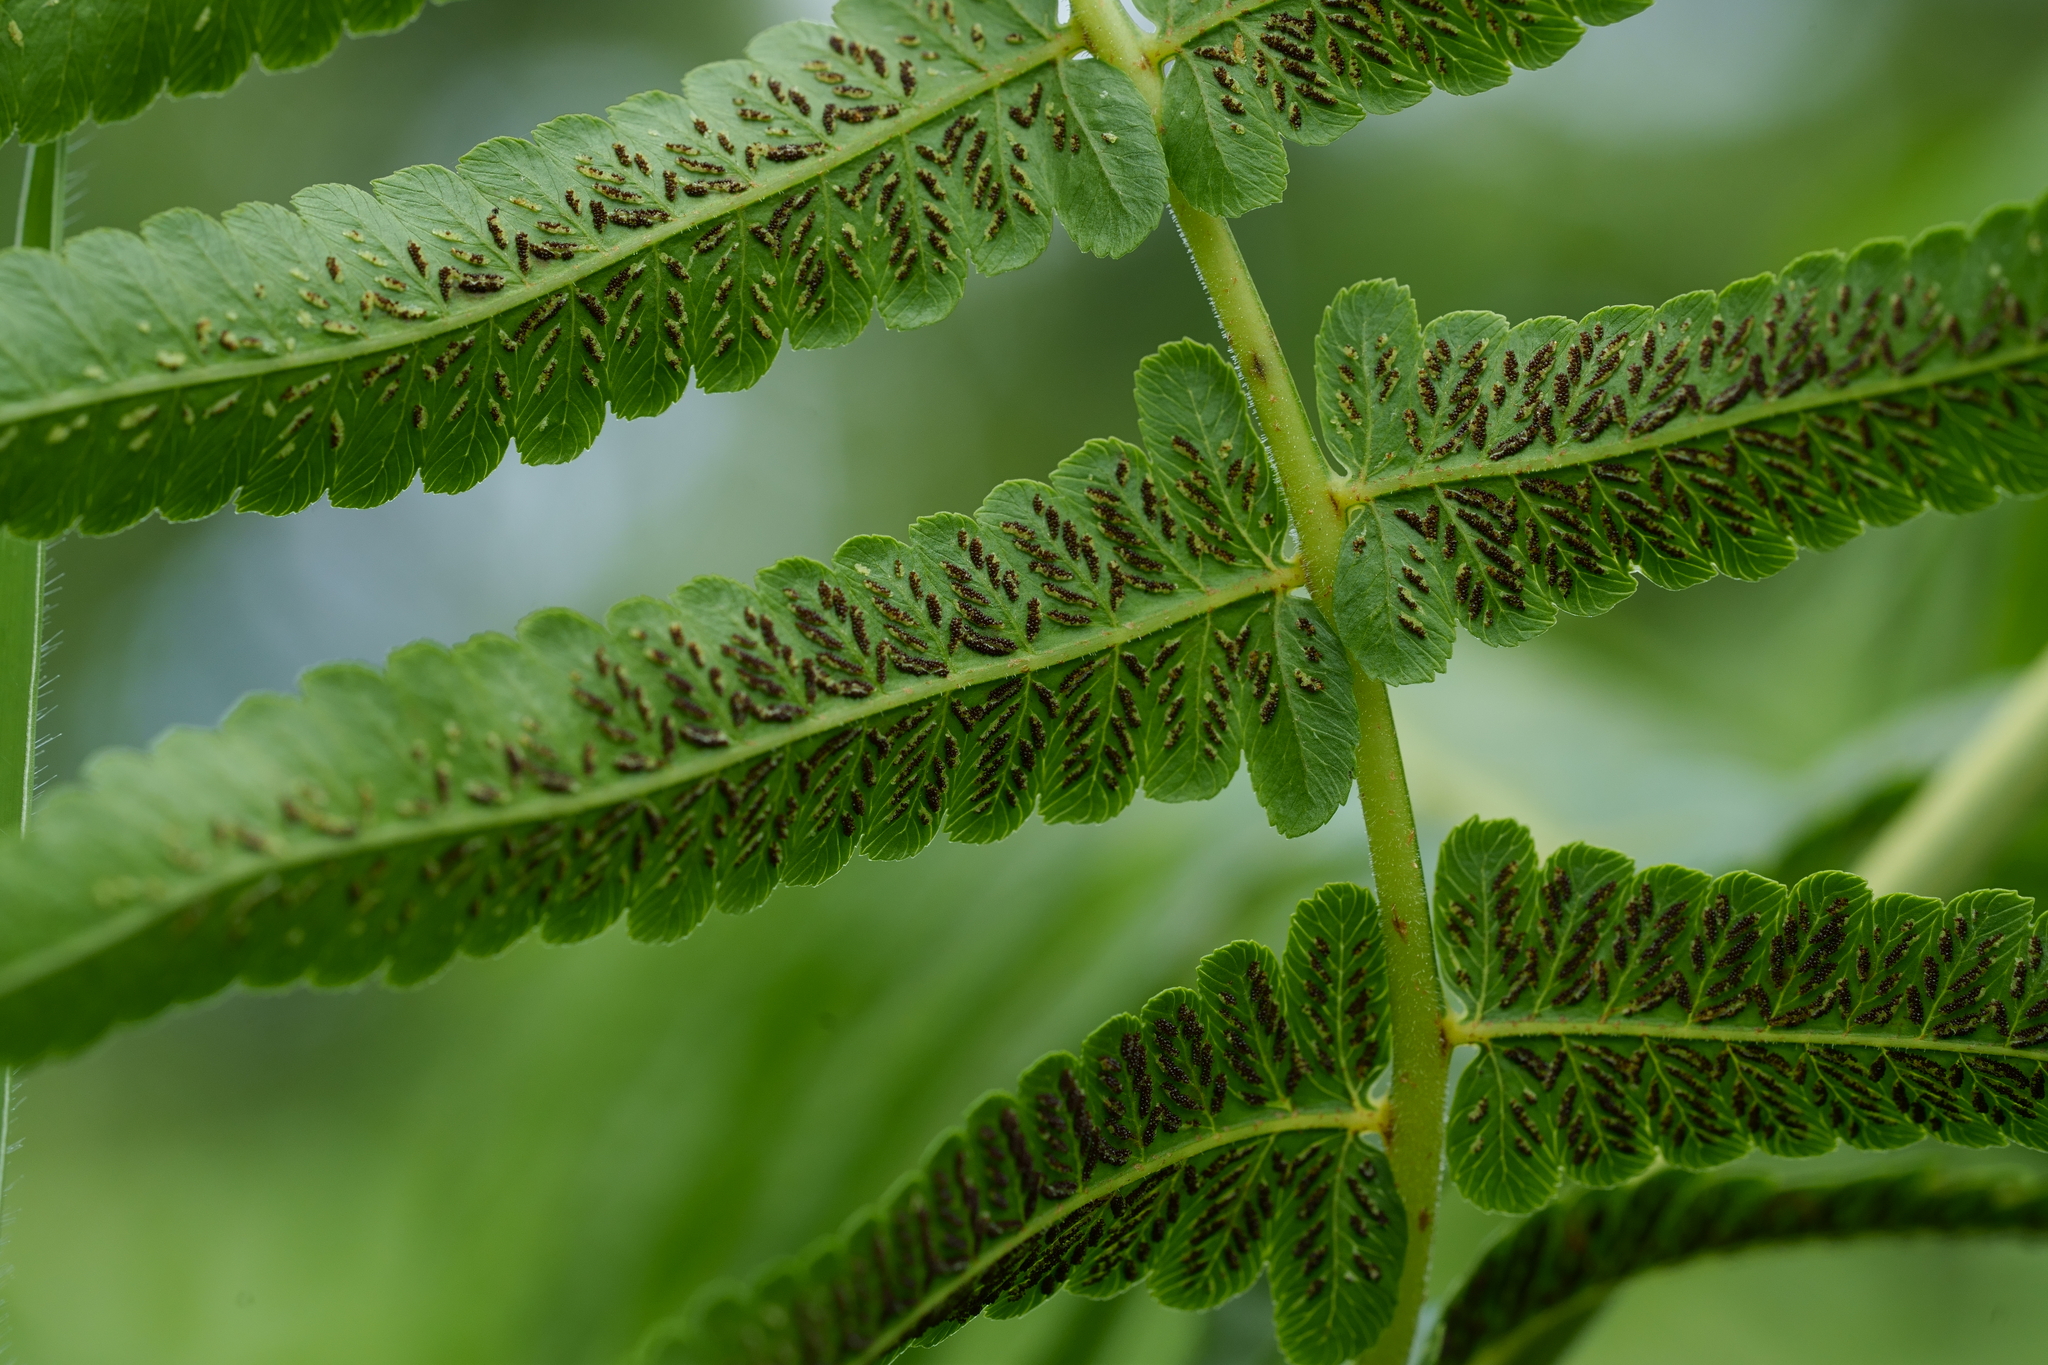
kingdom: Plantae
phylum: Tracheophyta
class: Polypodiopsida
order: Polypodiales
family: Athyriaceae
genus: Diplazium
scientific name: Diplazium esculentum
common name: Vegetable fern
